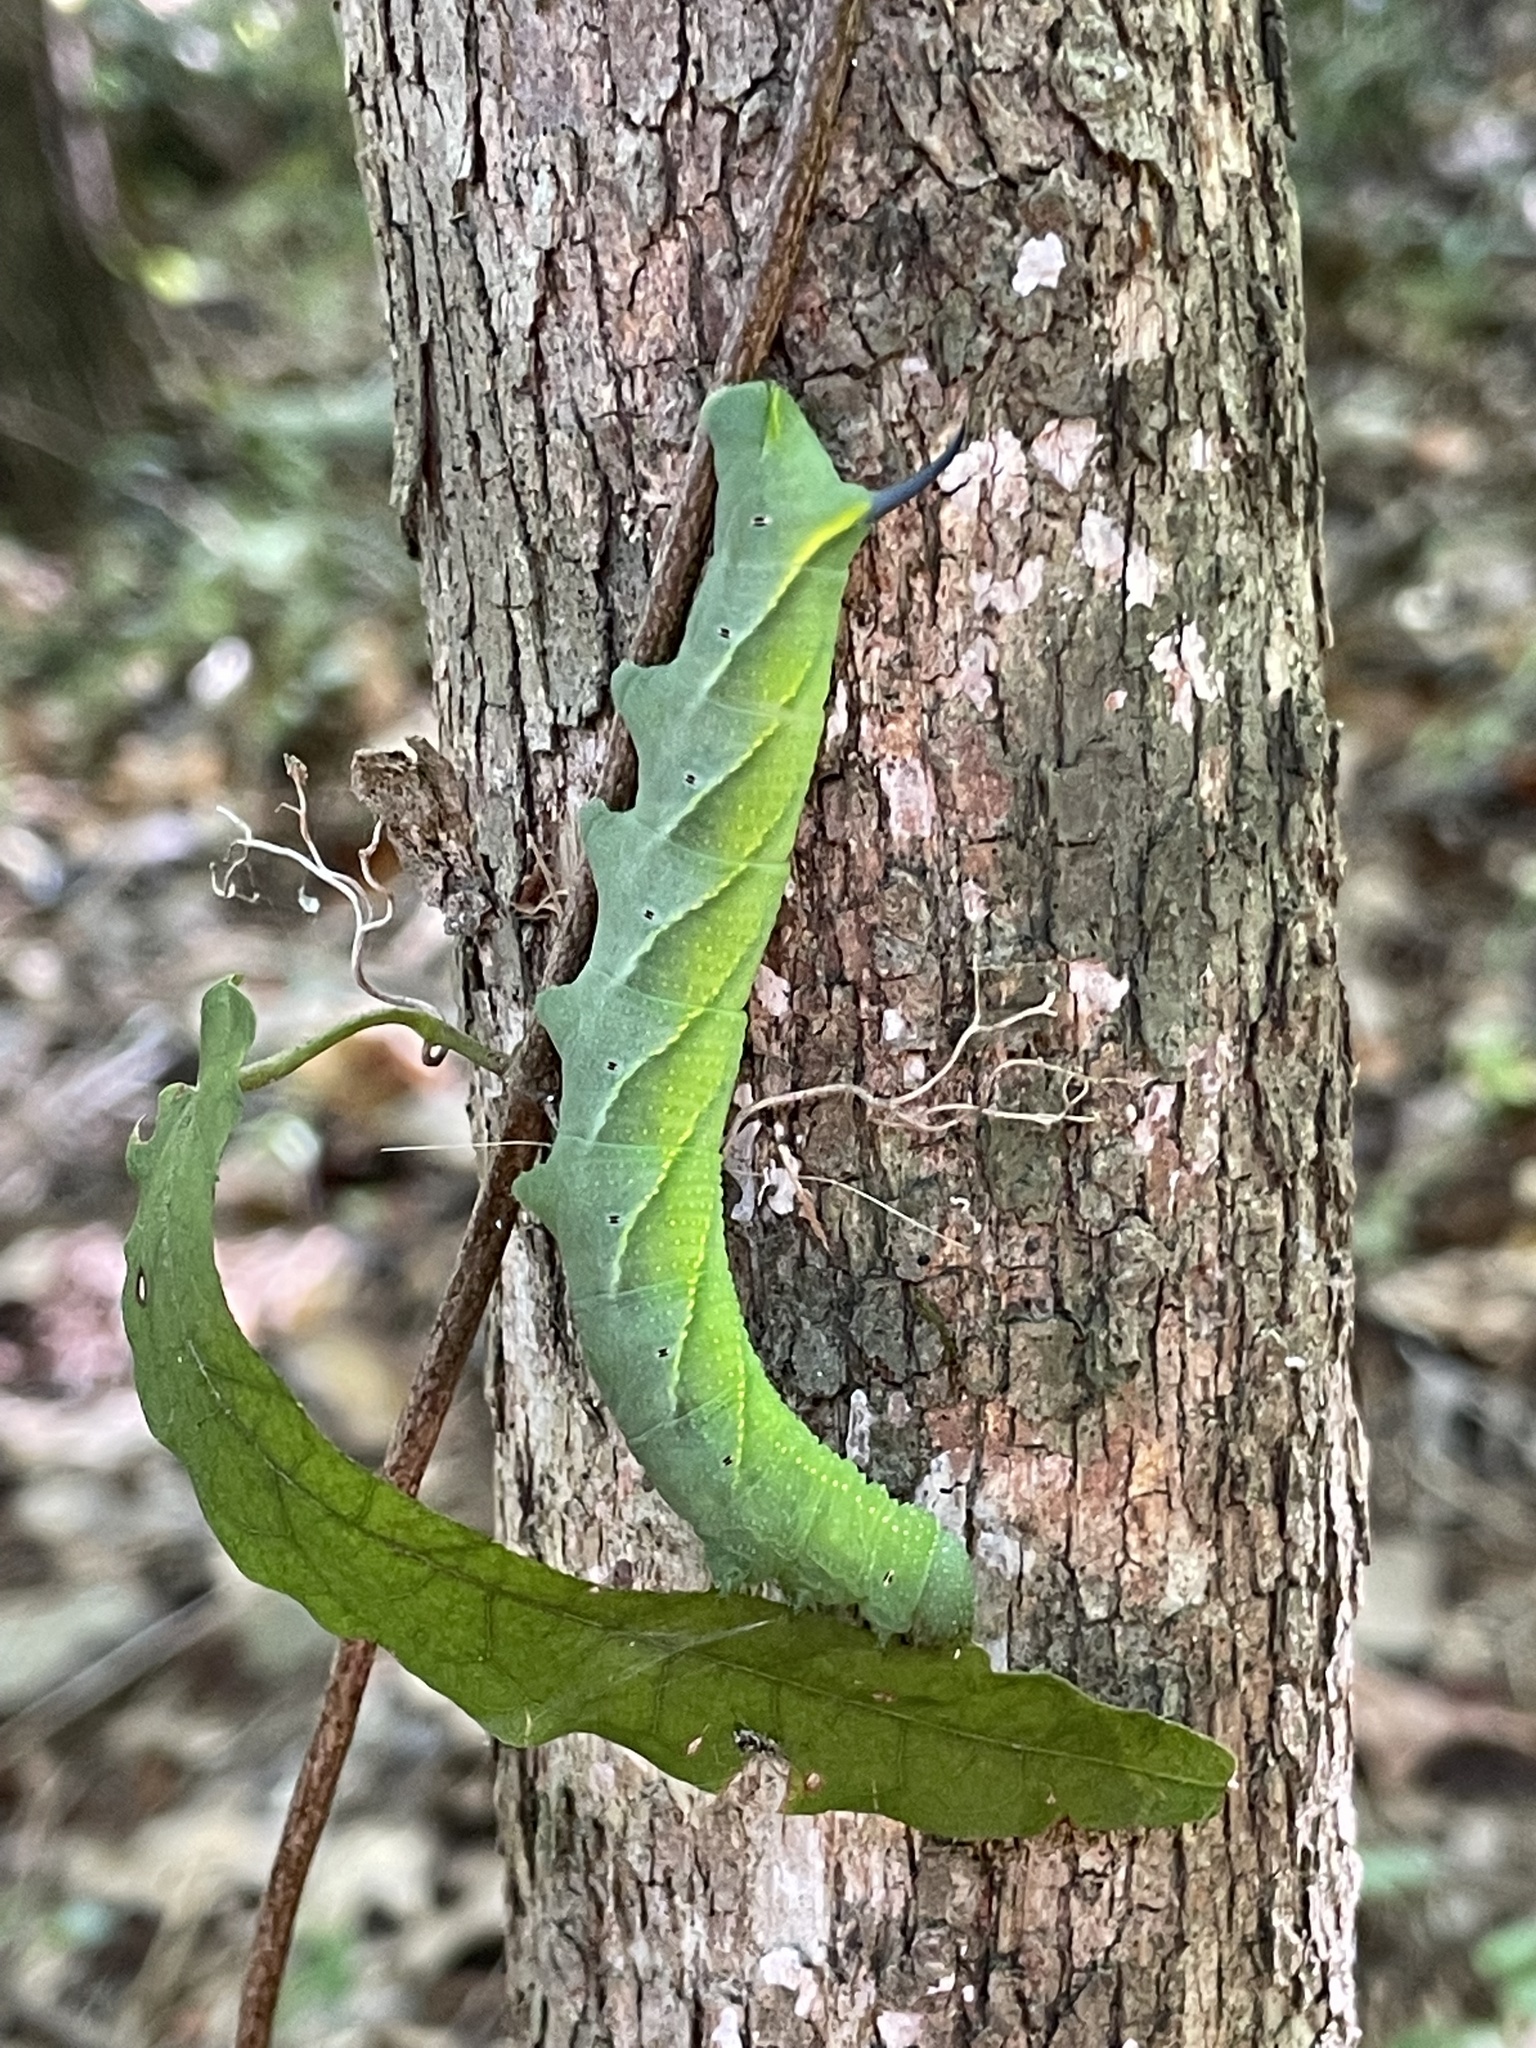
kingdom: Animalia
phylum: Arthropoda
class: Insecta
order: Lepidoptera
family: Sphingidae
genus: Paratrea
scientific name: Paratrea plebeja
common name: Plebian sphinx
